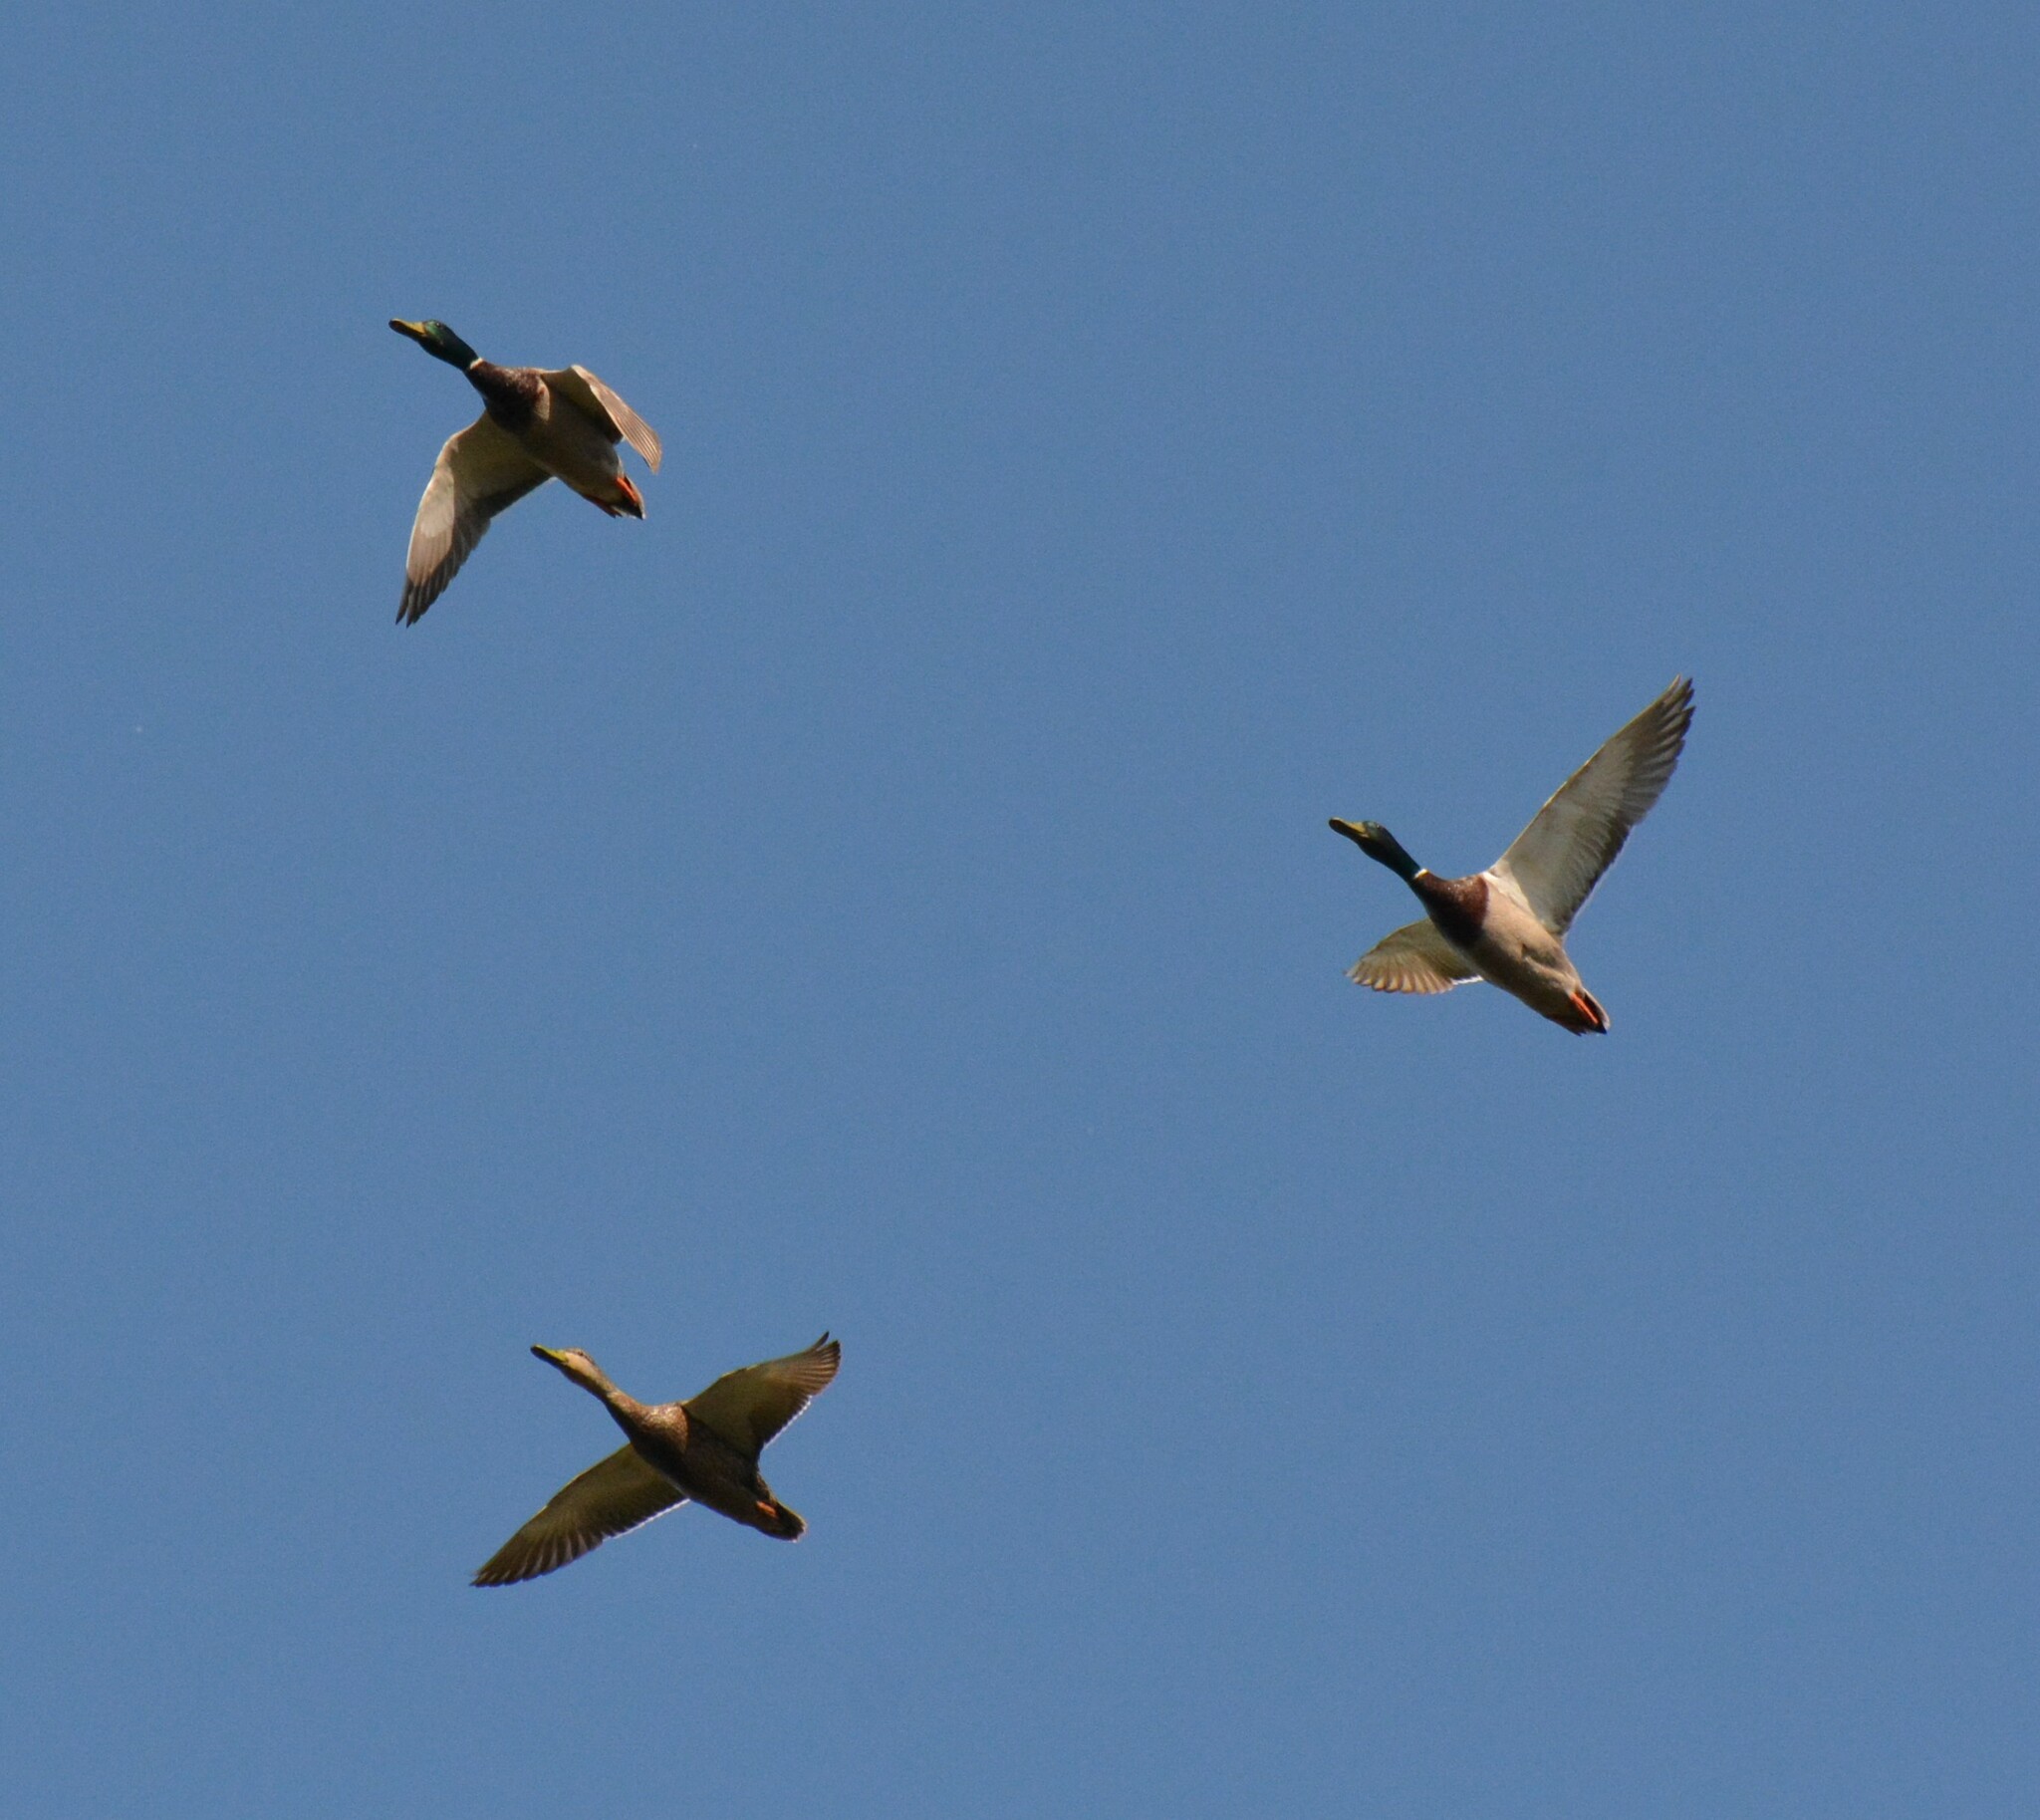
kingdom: Animalia
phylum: Chordata
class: Aves
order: Anseriformes
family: Anatidae
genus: Anas
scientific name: Anas platyrhynchos
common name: Mallard
